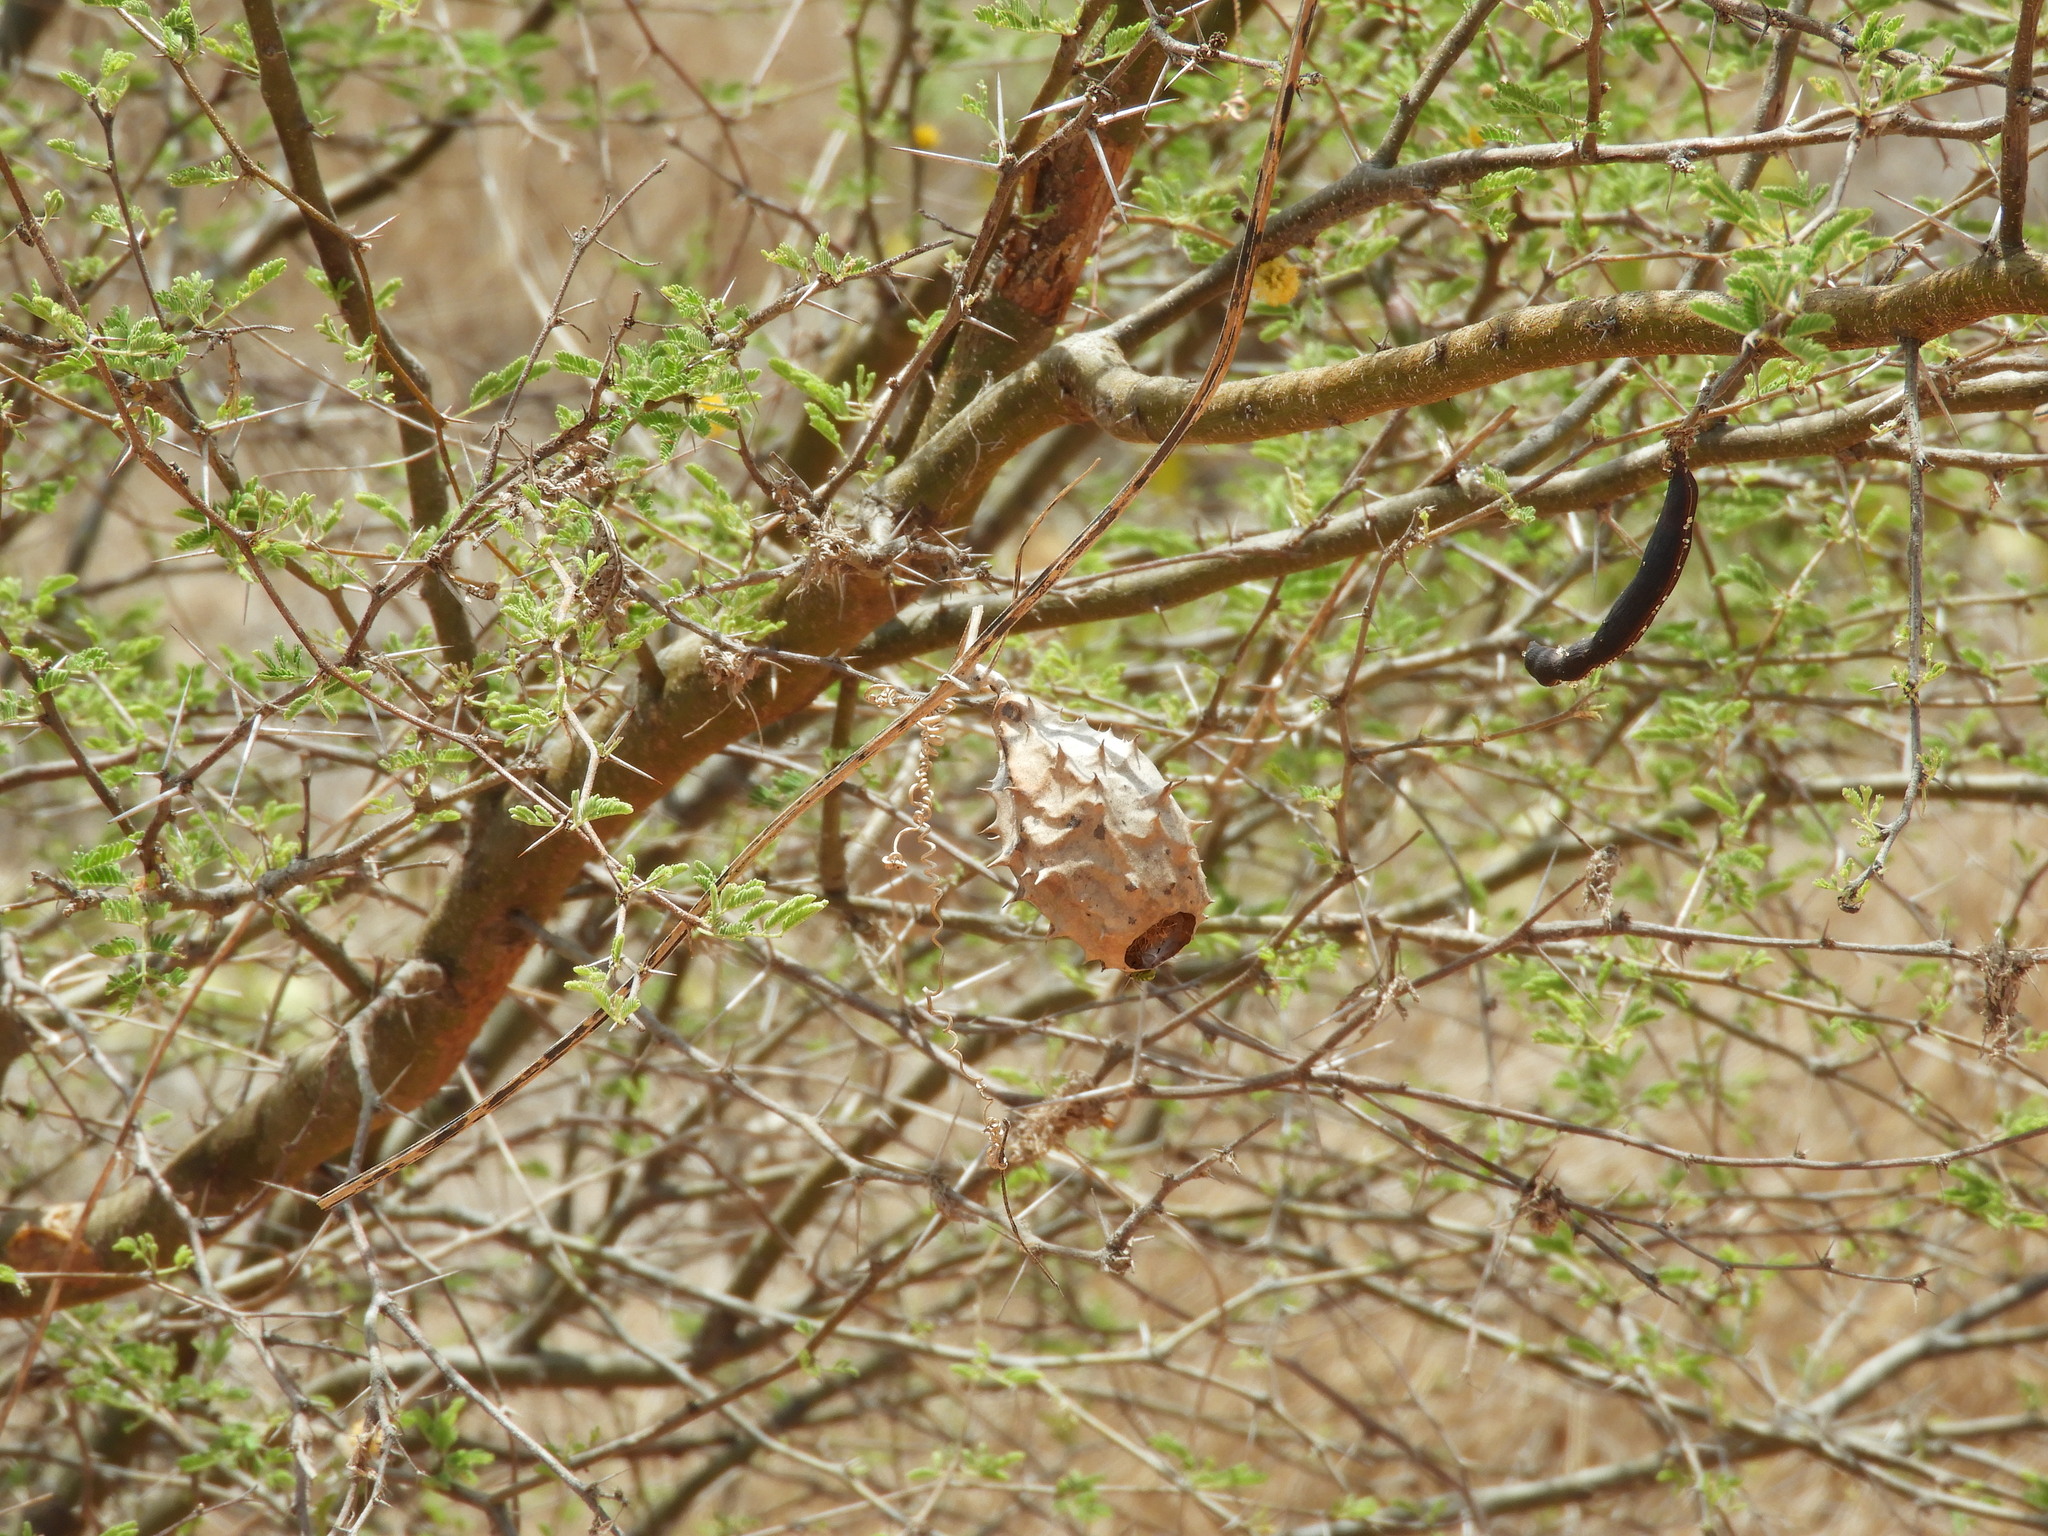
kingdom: Plantae
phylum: Tracheophyta
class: Magnoliopsida
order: Cucurbitales
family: Cucurbitaceae
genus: Luffa
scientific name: Luffa operculata
